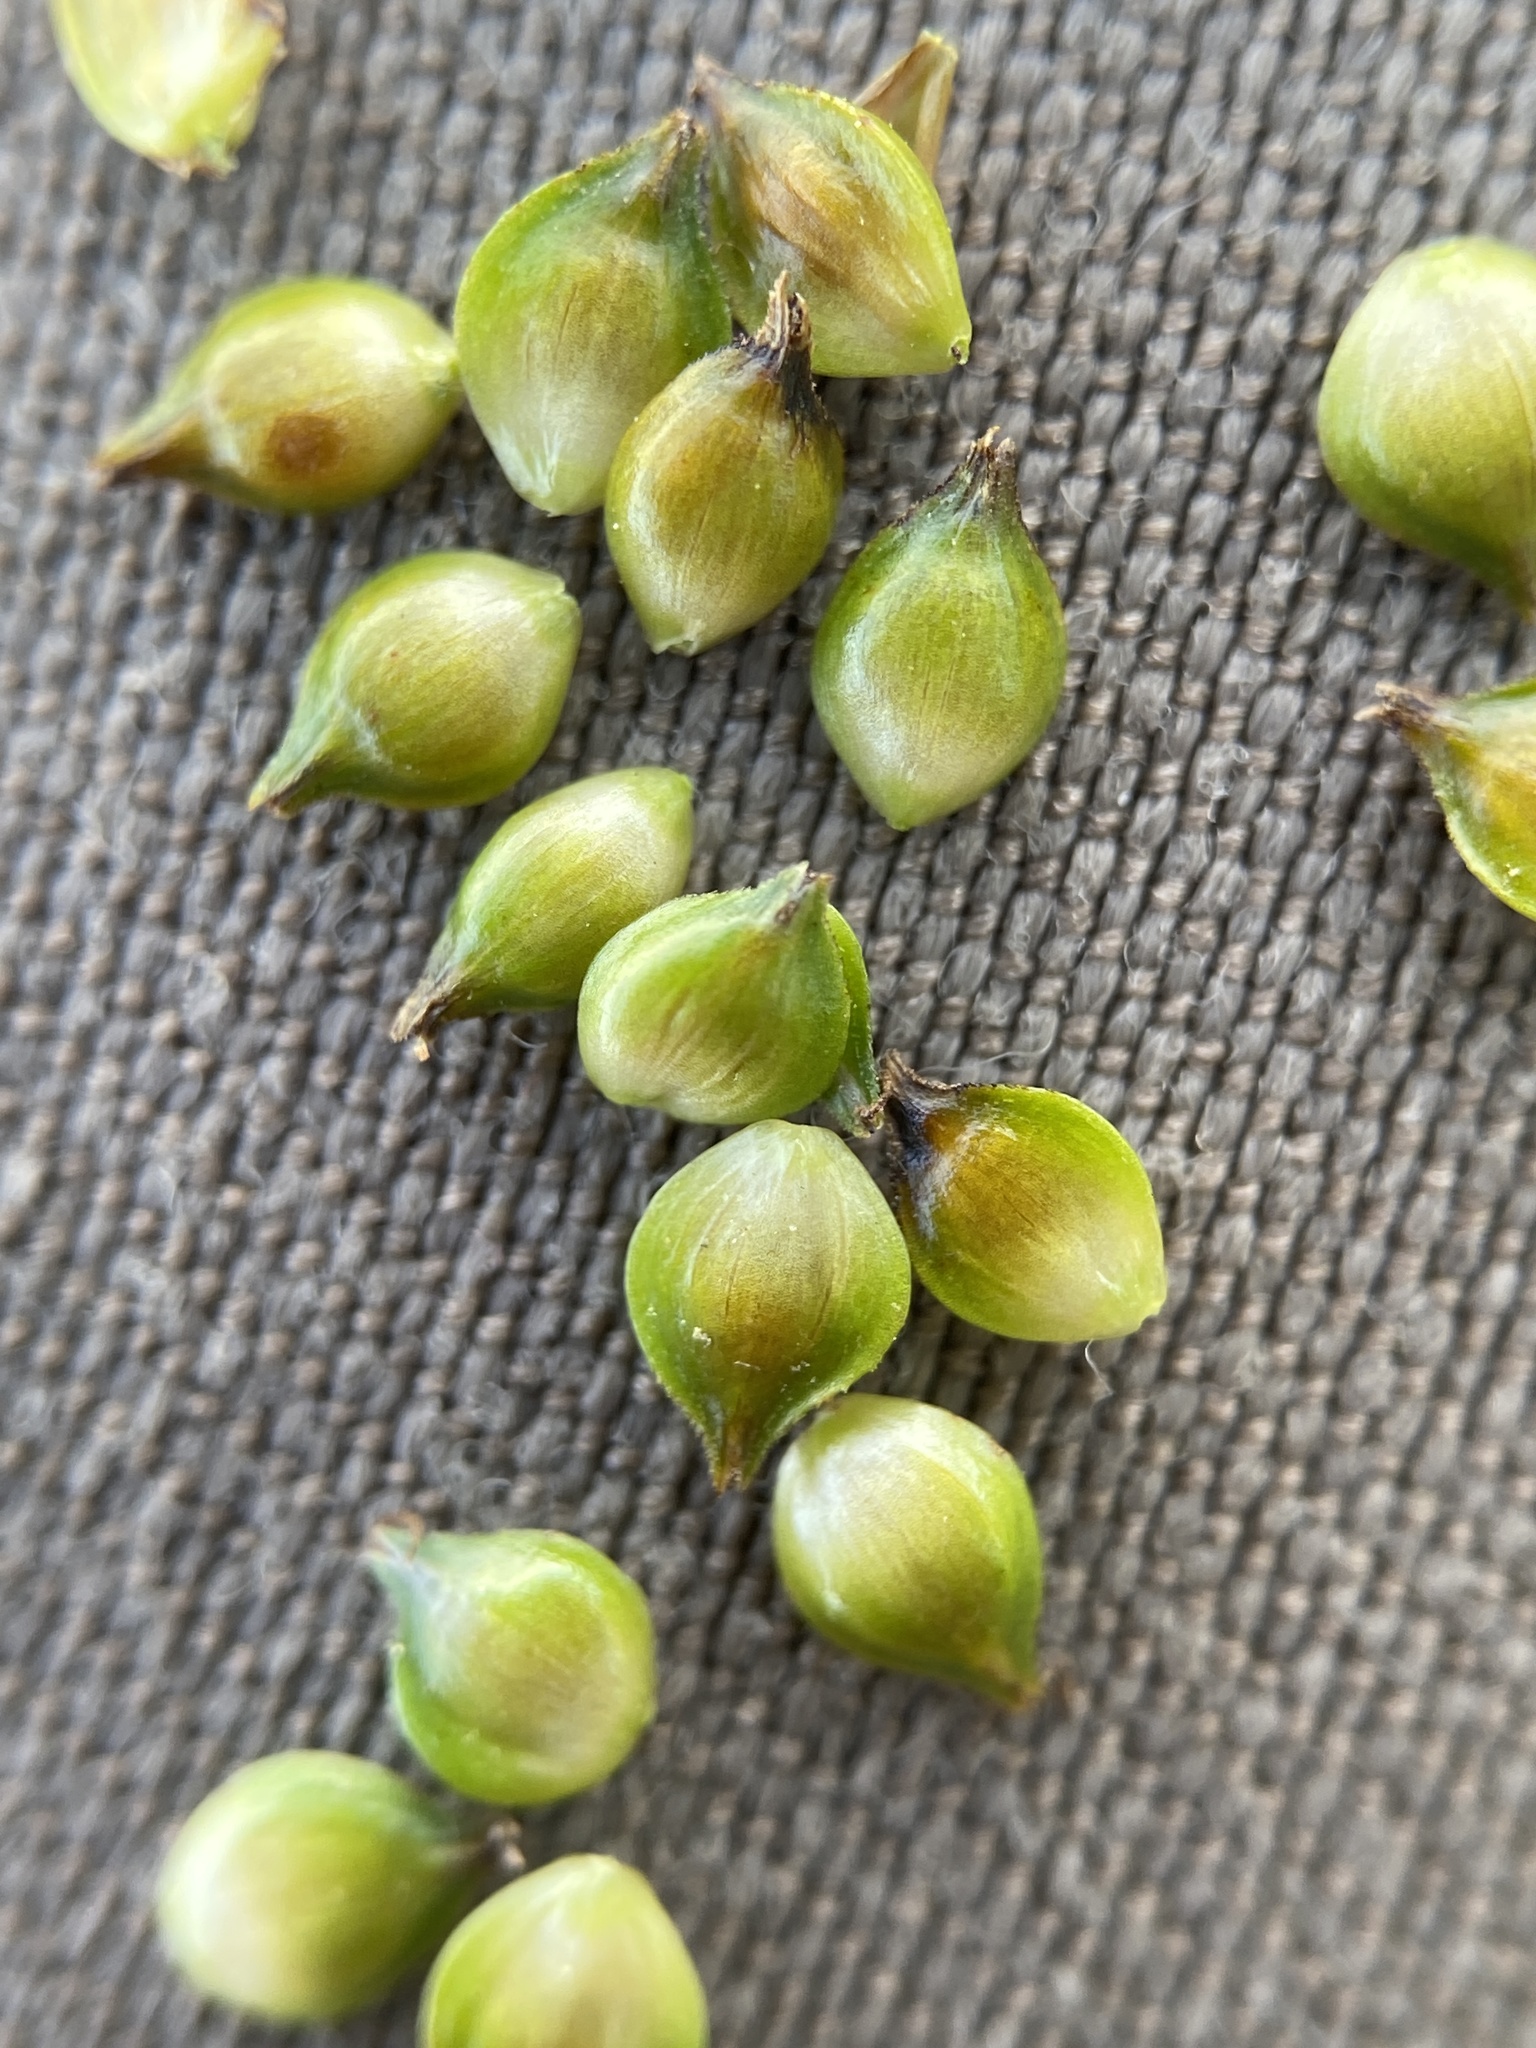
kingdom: Plantae
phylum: Tracheophyta
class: Liliopsida
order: Poales
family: Cyperaceae
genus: Carex
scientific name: Carex muehlenbergii
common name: Muhlenberg's bracted sedge
